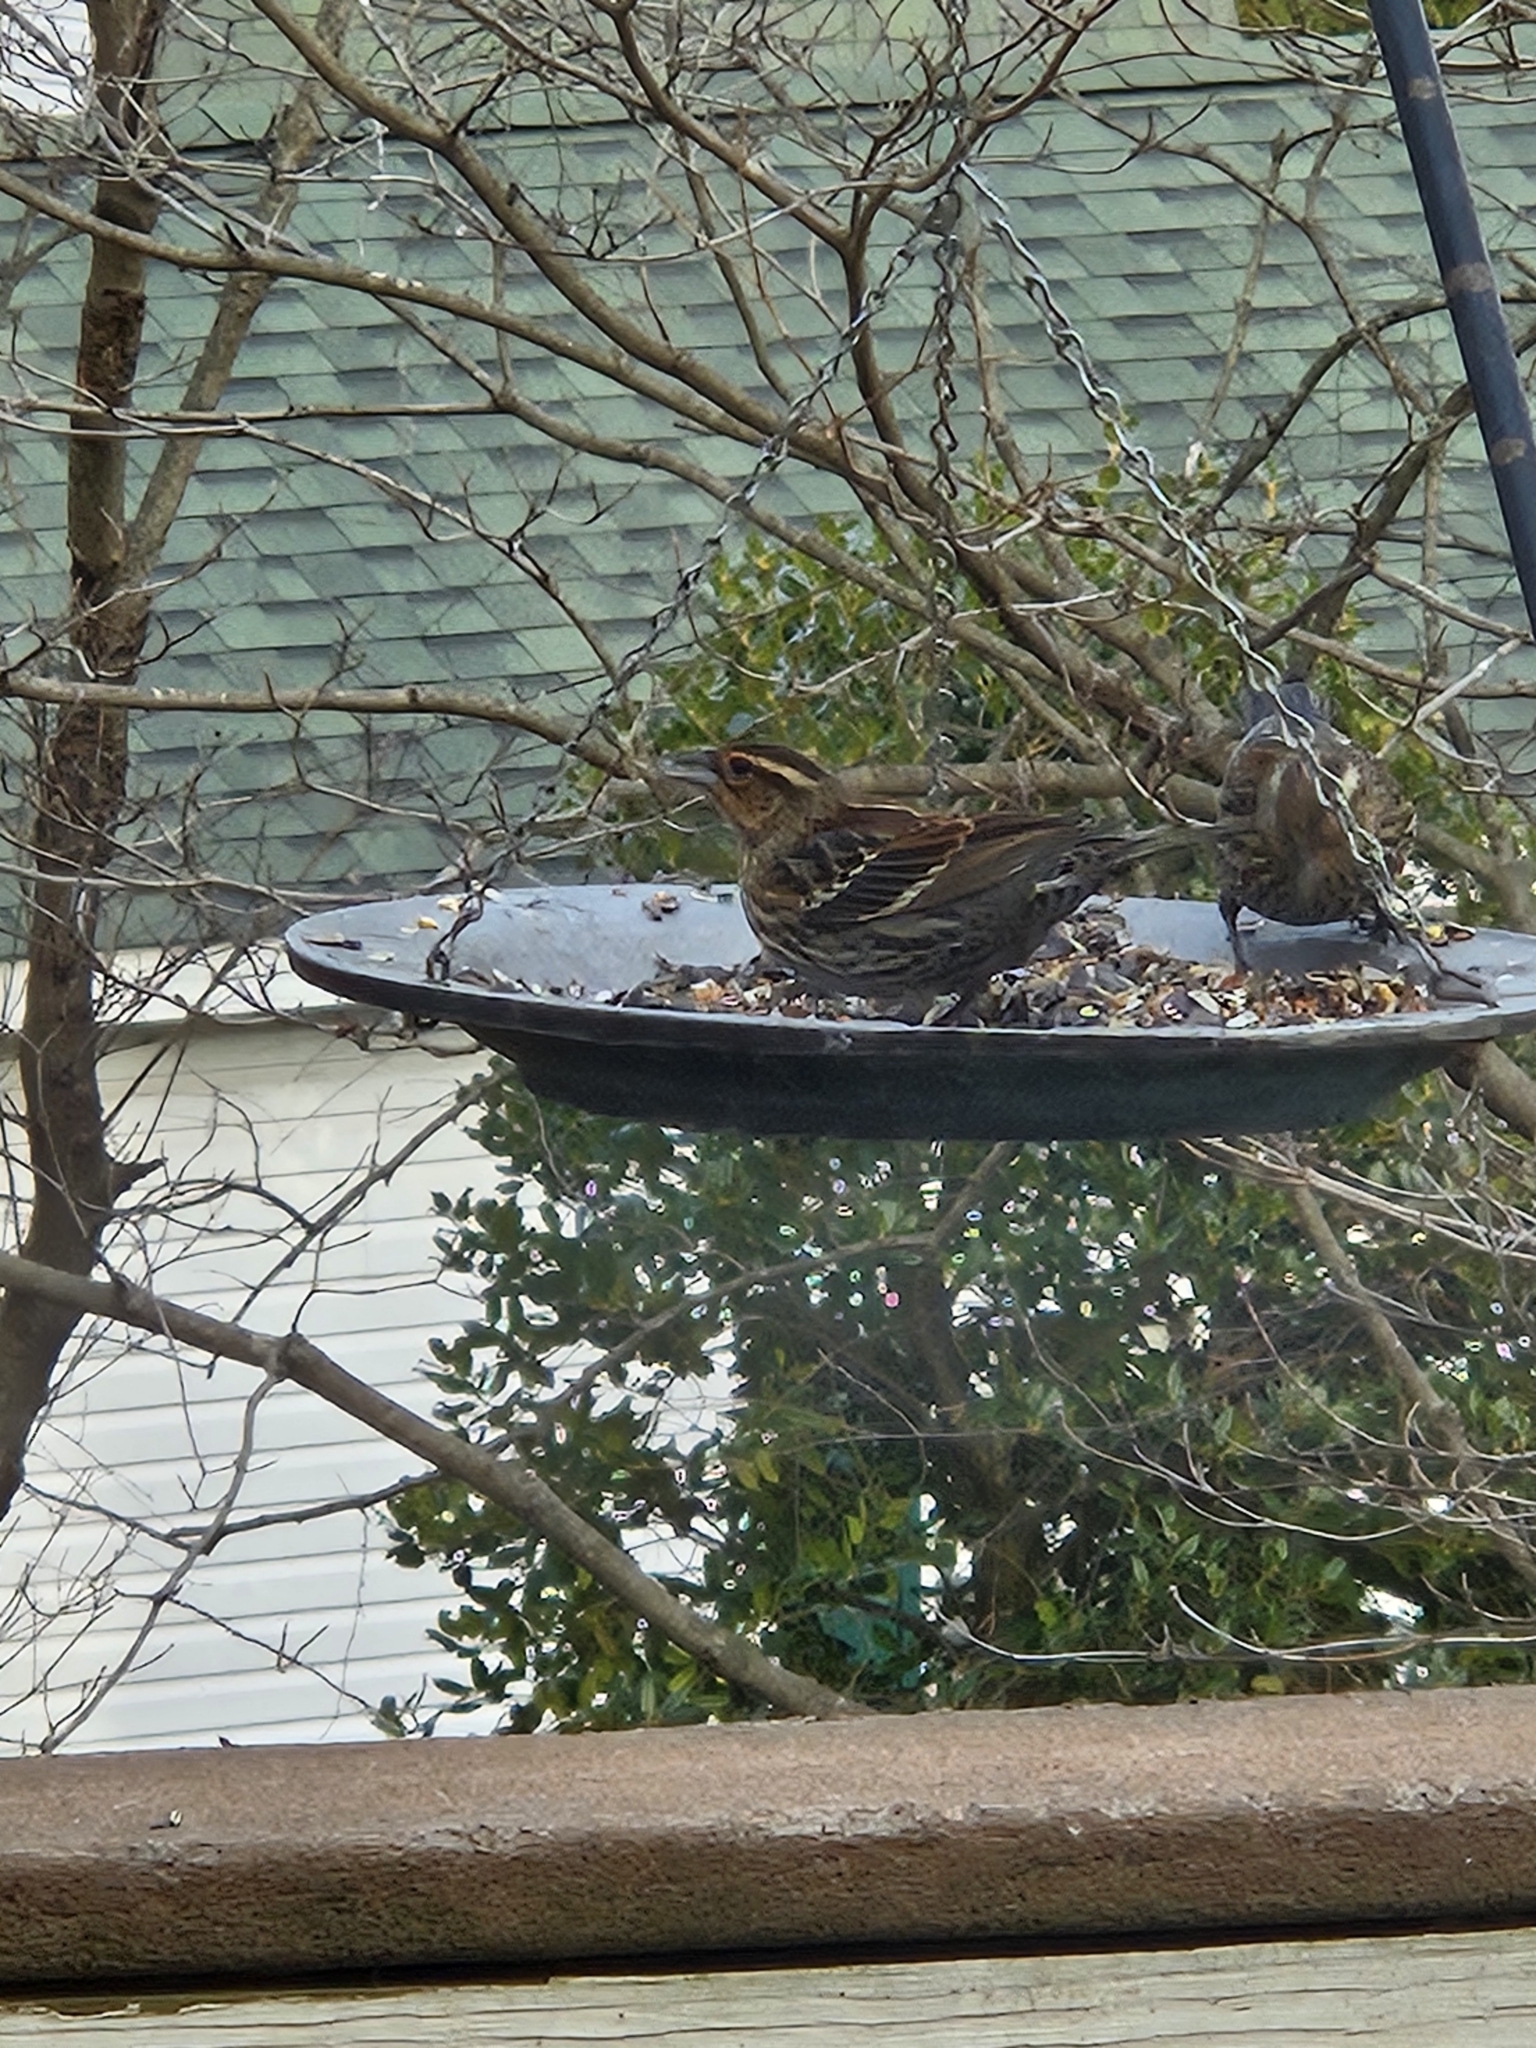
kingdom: Animalia
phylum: Chordata
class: Aves
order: Passeriformes
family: Icteridae
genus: Agelaius
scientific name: Agelaius phoeniceus
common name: Red-winged blackbird
